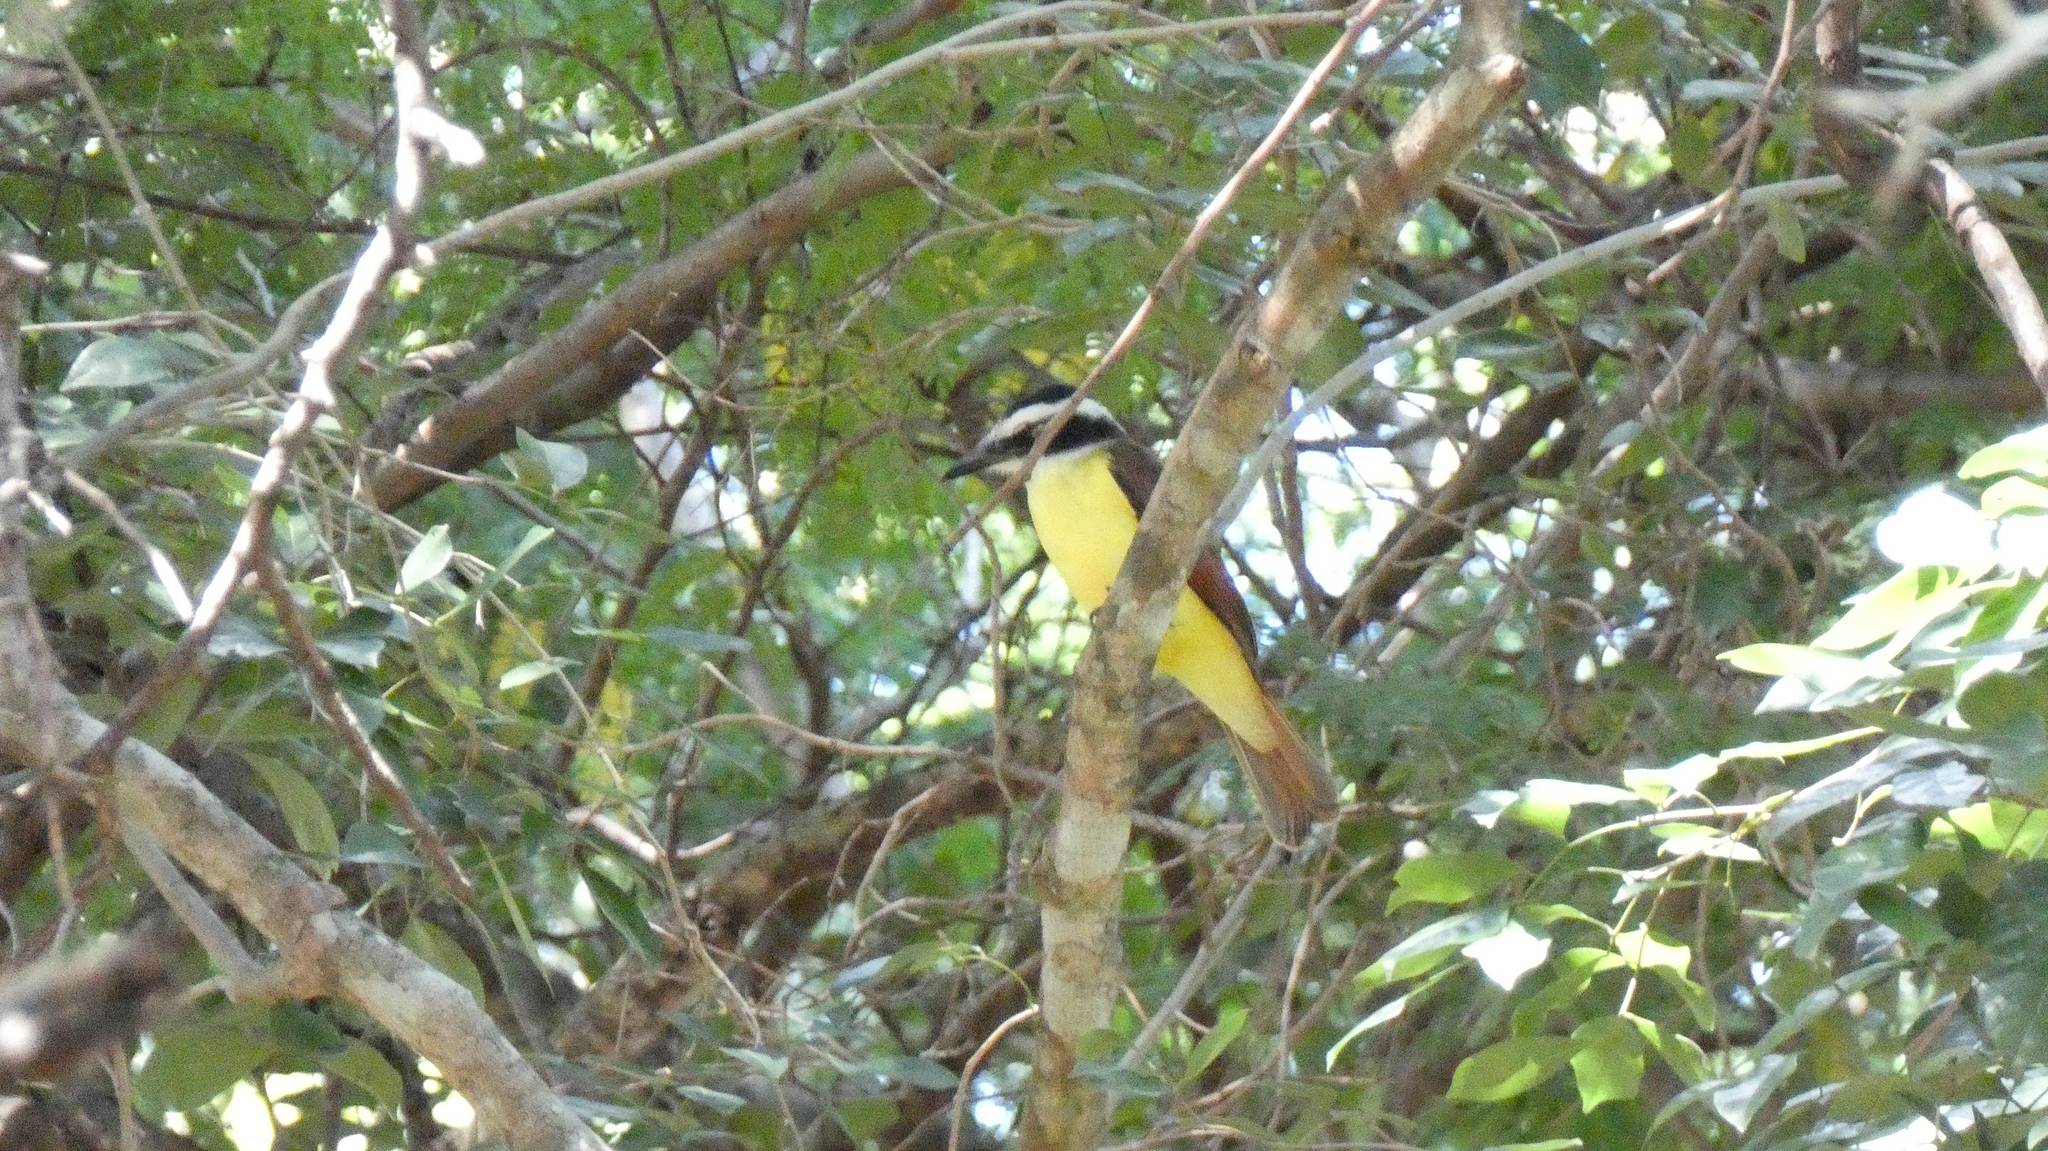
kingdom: Animalia
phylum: Chordata
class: Aves
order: Passeriformes
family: Tyrannidae
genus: Pitangus
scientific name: Pitangus sulphuratus
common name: Great kiskadee
